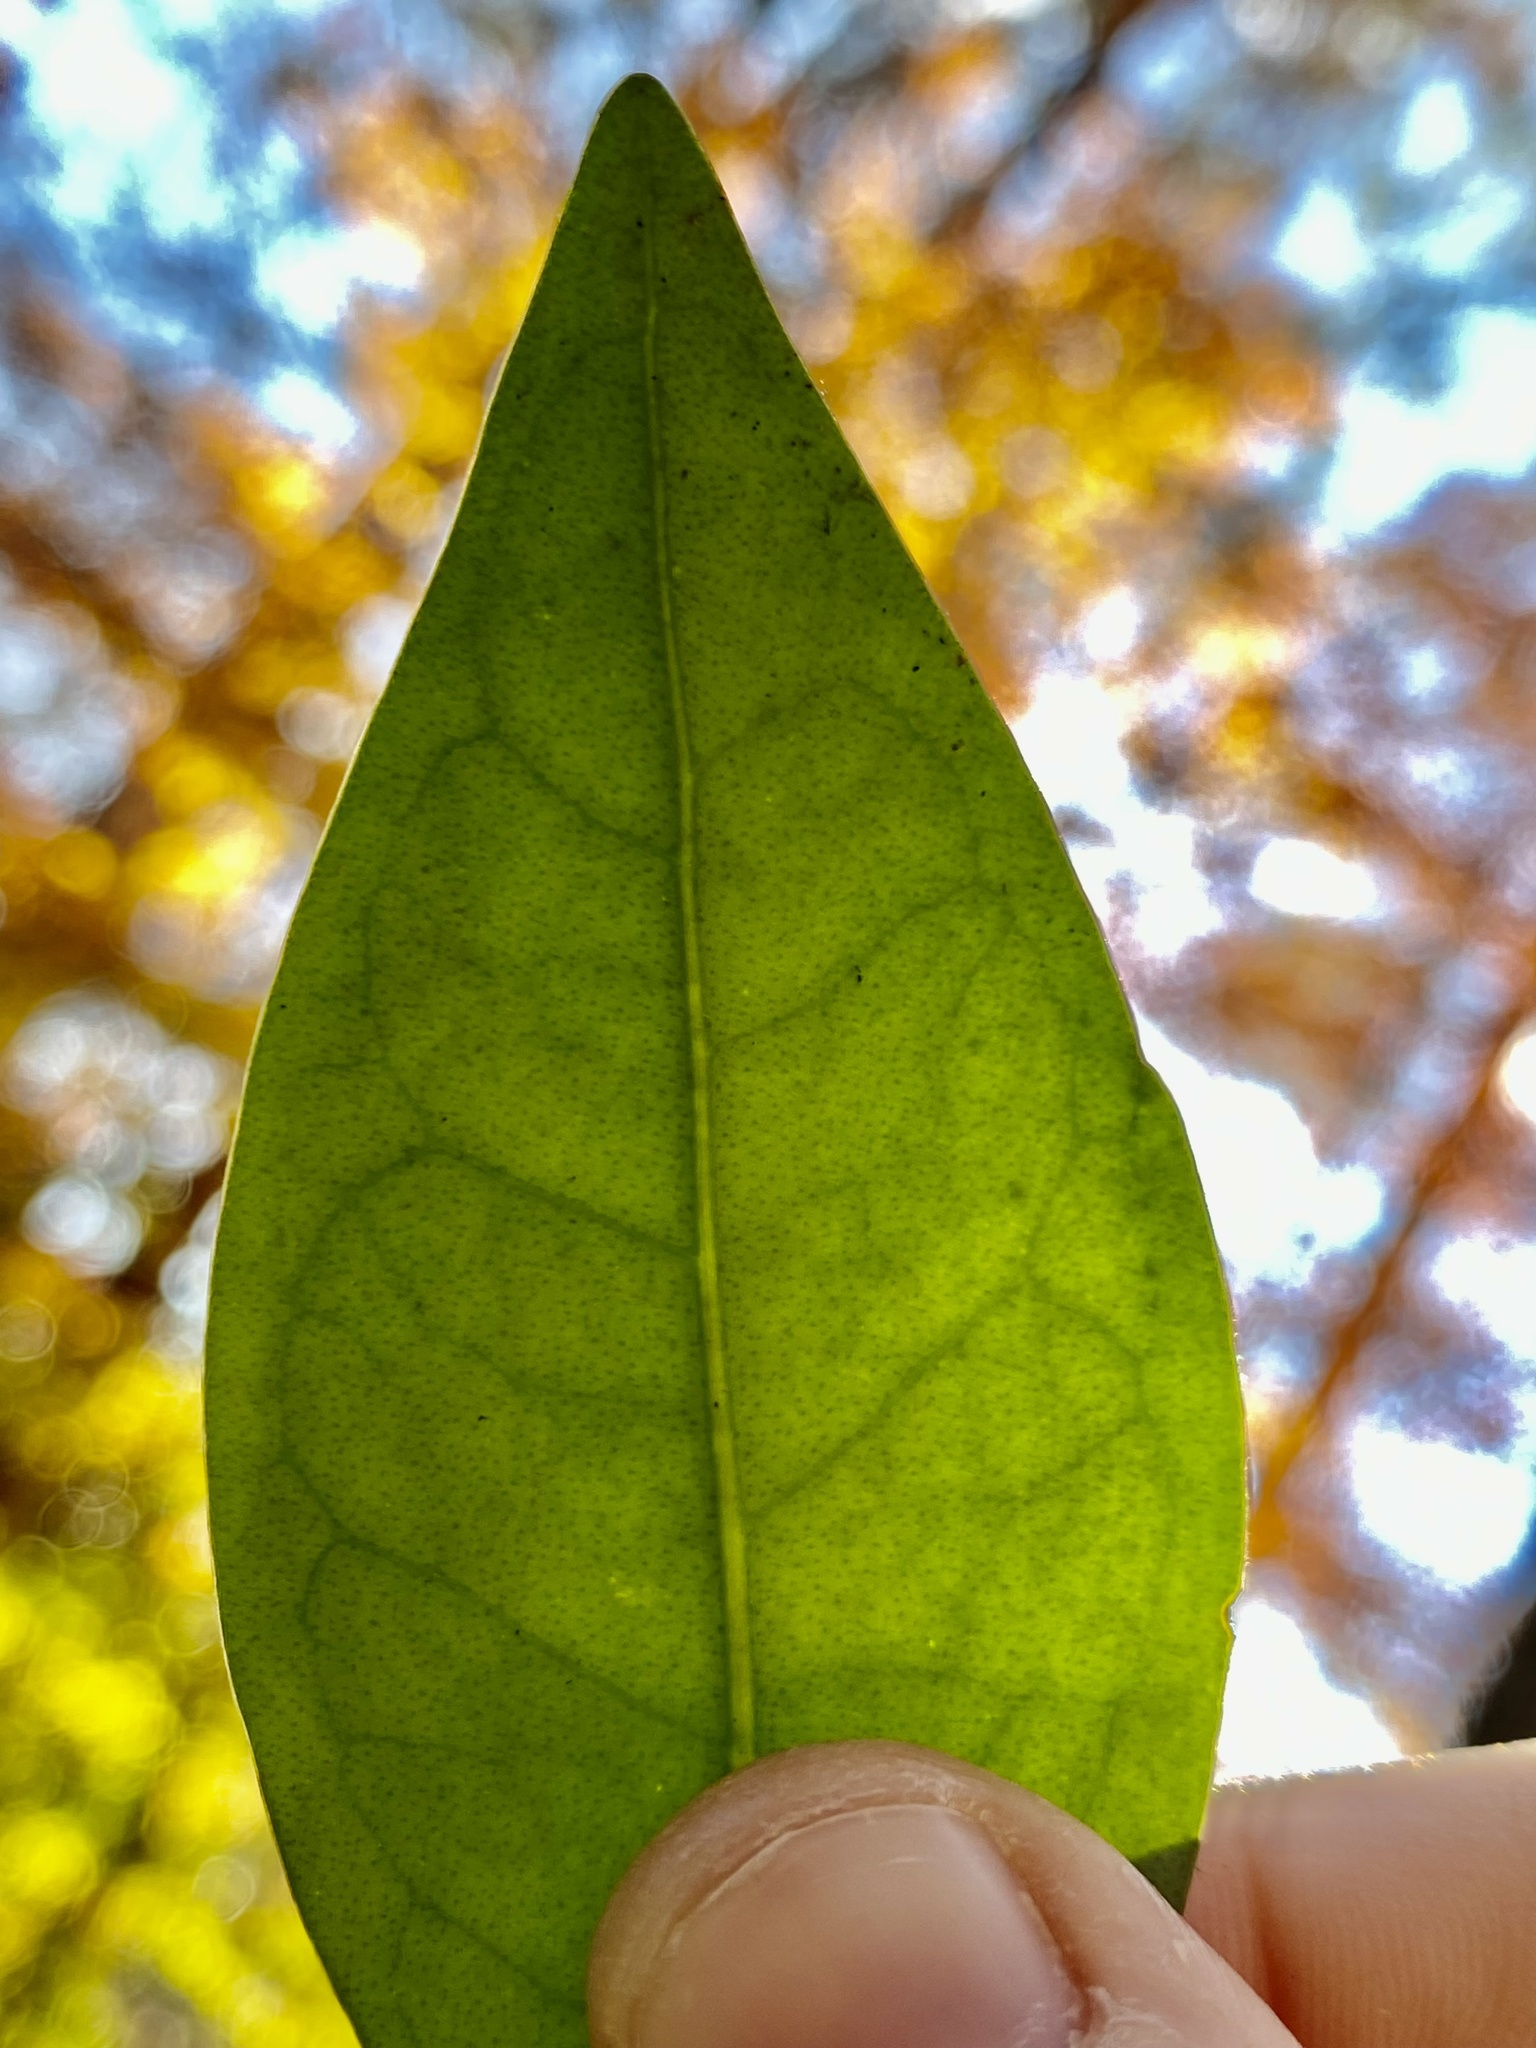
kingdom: Plantae
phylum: Tracheophyta
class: Magnoliopsida
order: Lamiales
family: Oleaceae
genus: Ligustrum
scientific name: Ligustrum lucidum
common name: Glossy privet
